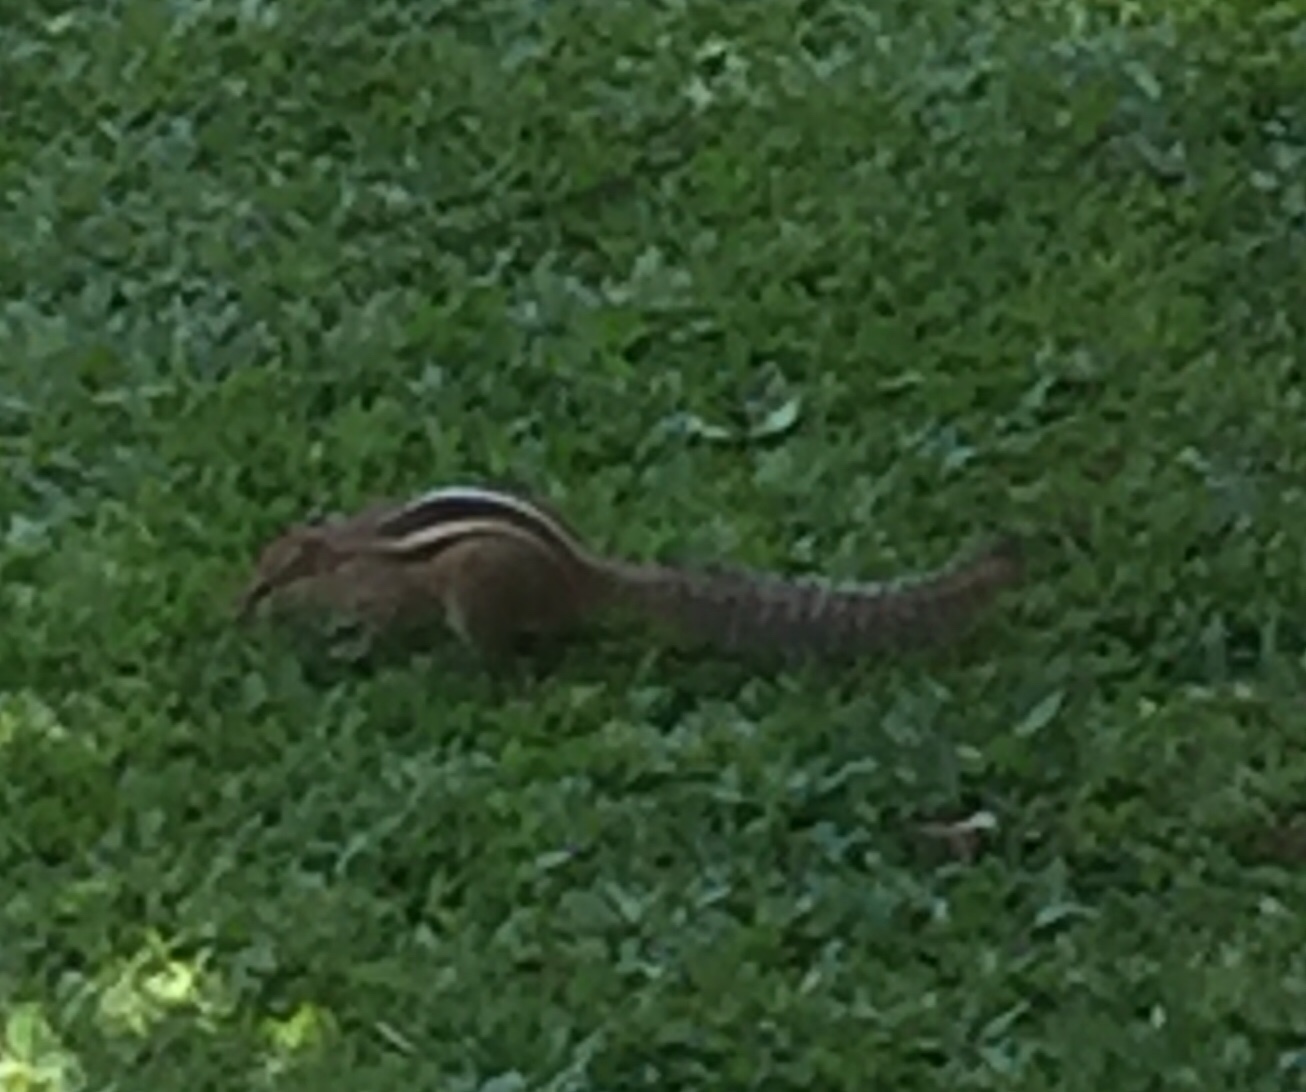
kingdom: Animalia
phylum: Chordata
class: Mammalia
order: Rodentia
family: Sciuridae
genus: Funambulus
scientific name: Funambulus palmarum
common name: Indian palm squirrel
